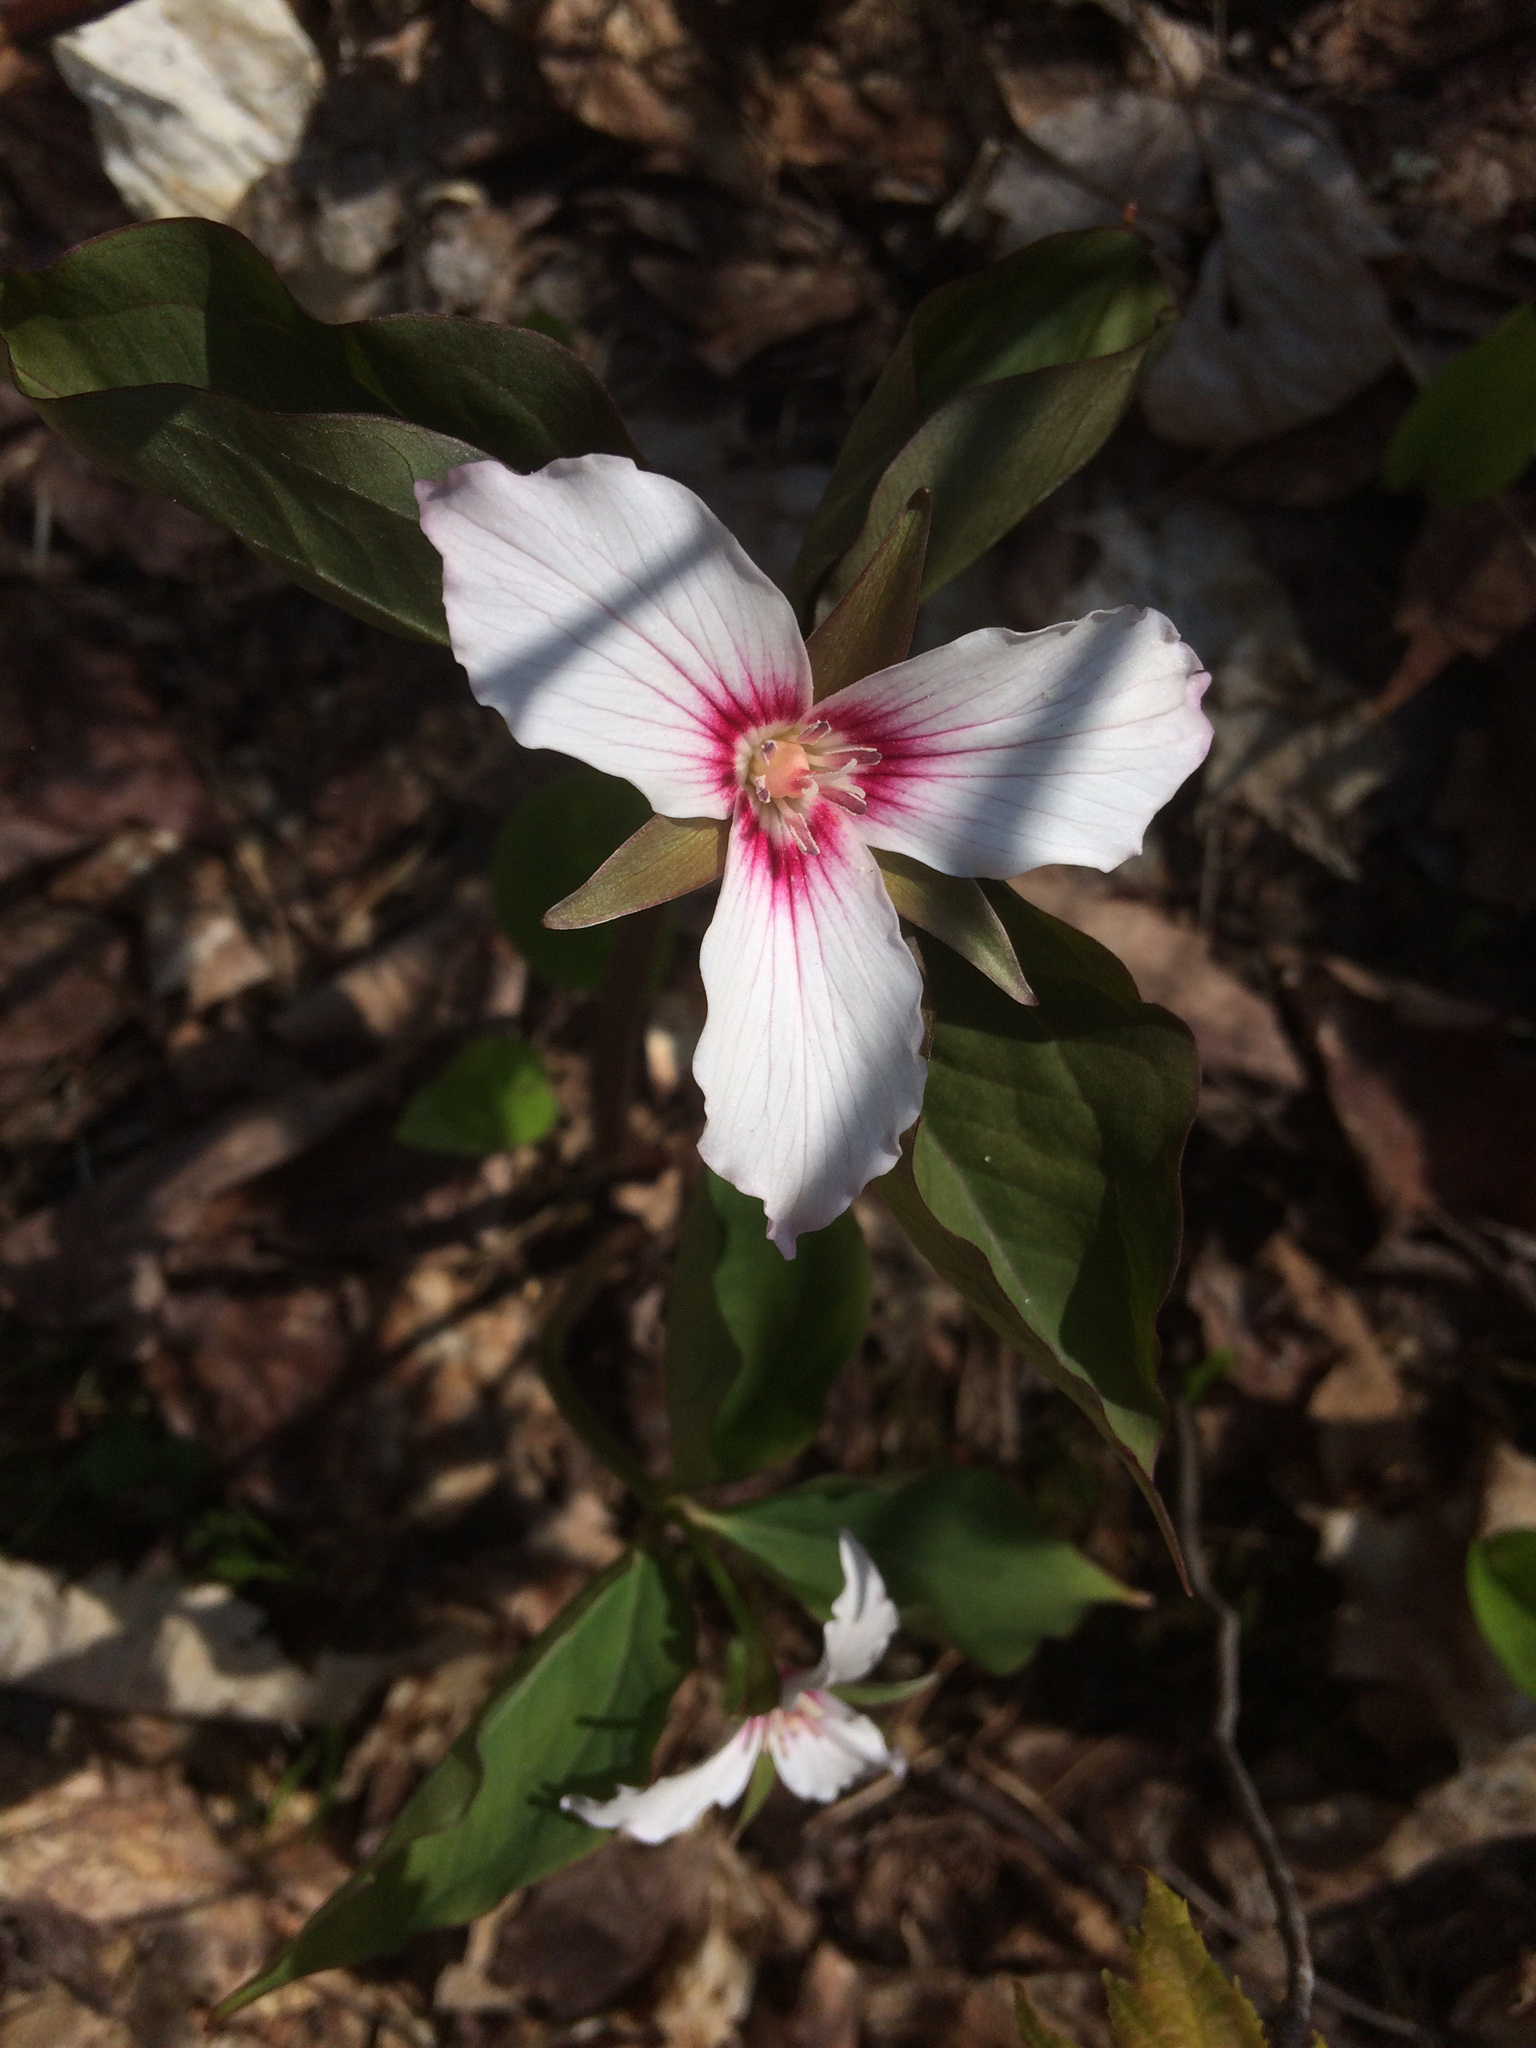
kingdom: Plantae
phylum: Tracheophyta
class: Liliopsida
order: Liliales
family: Melanthiaceae
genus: Trillium
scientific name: Trillium undulatum
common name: Paint trillium
